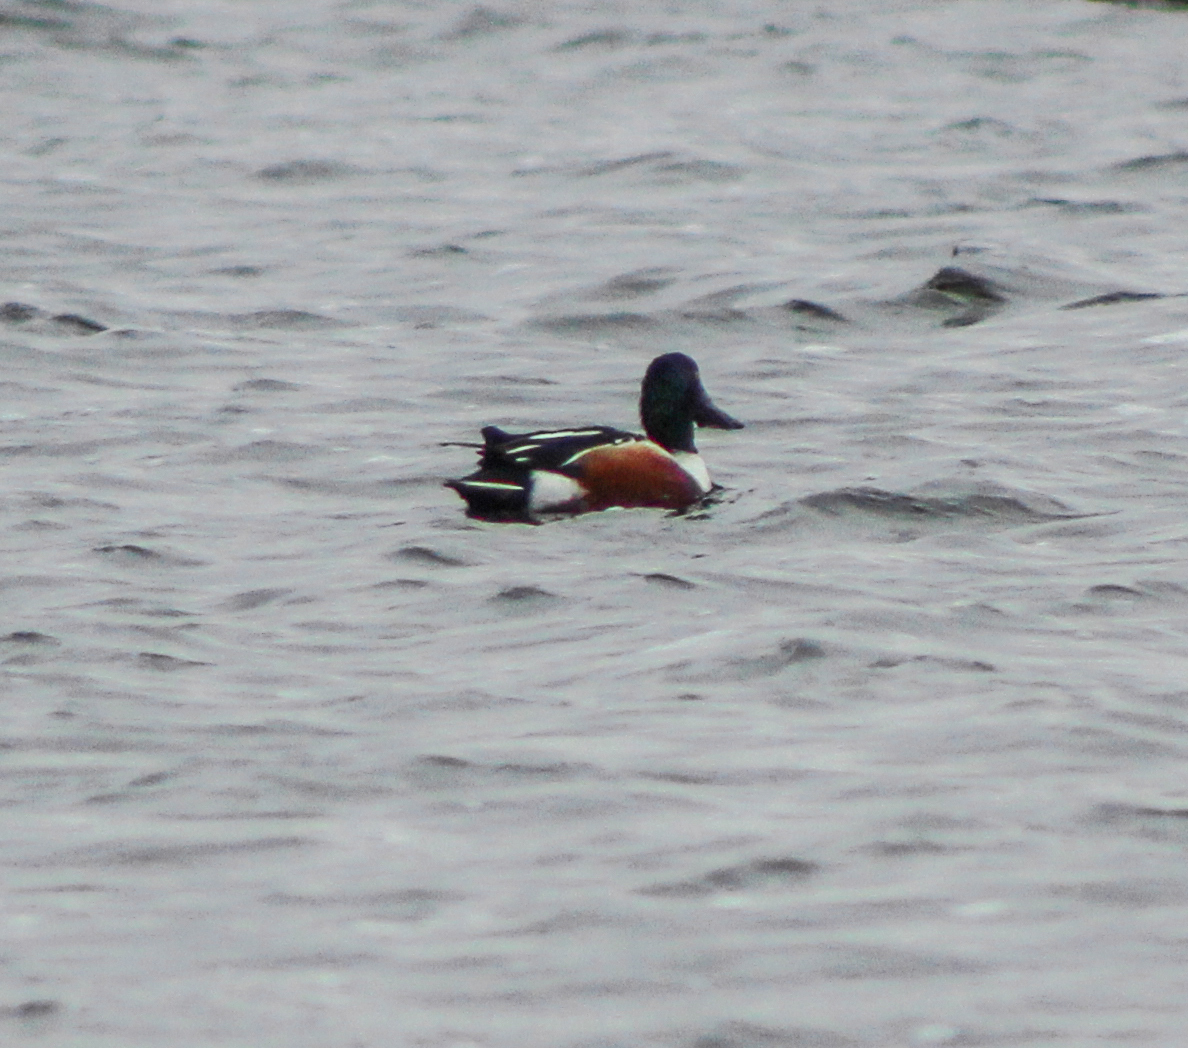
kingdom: Animalia
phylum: Chordata
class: Aves
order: Anseriformes
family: Anatidae
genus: Spatula
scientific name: Spatula clypeata
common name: Northern shoveler
